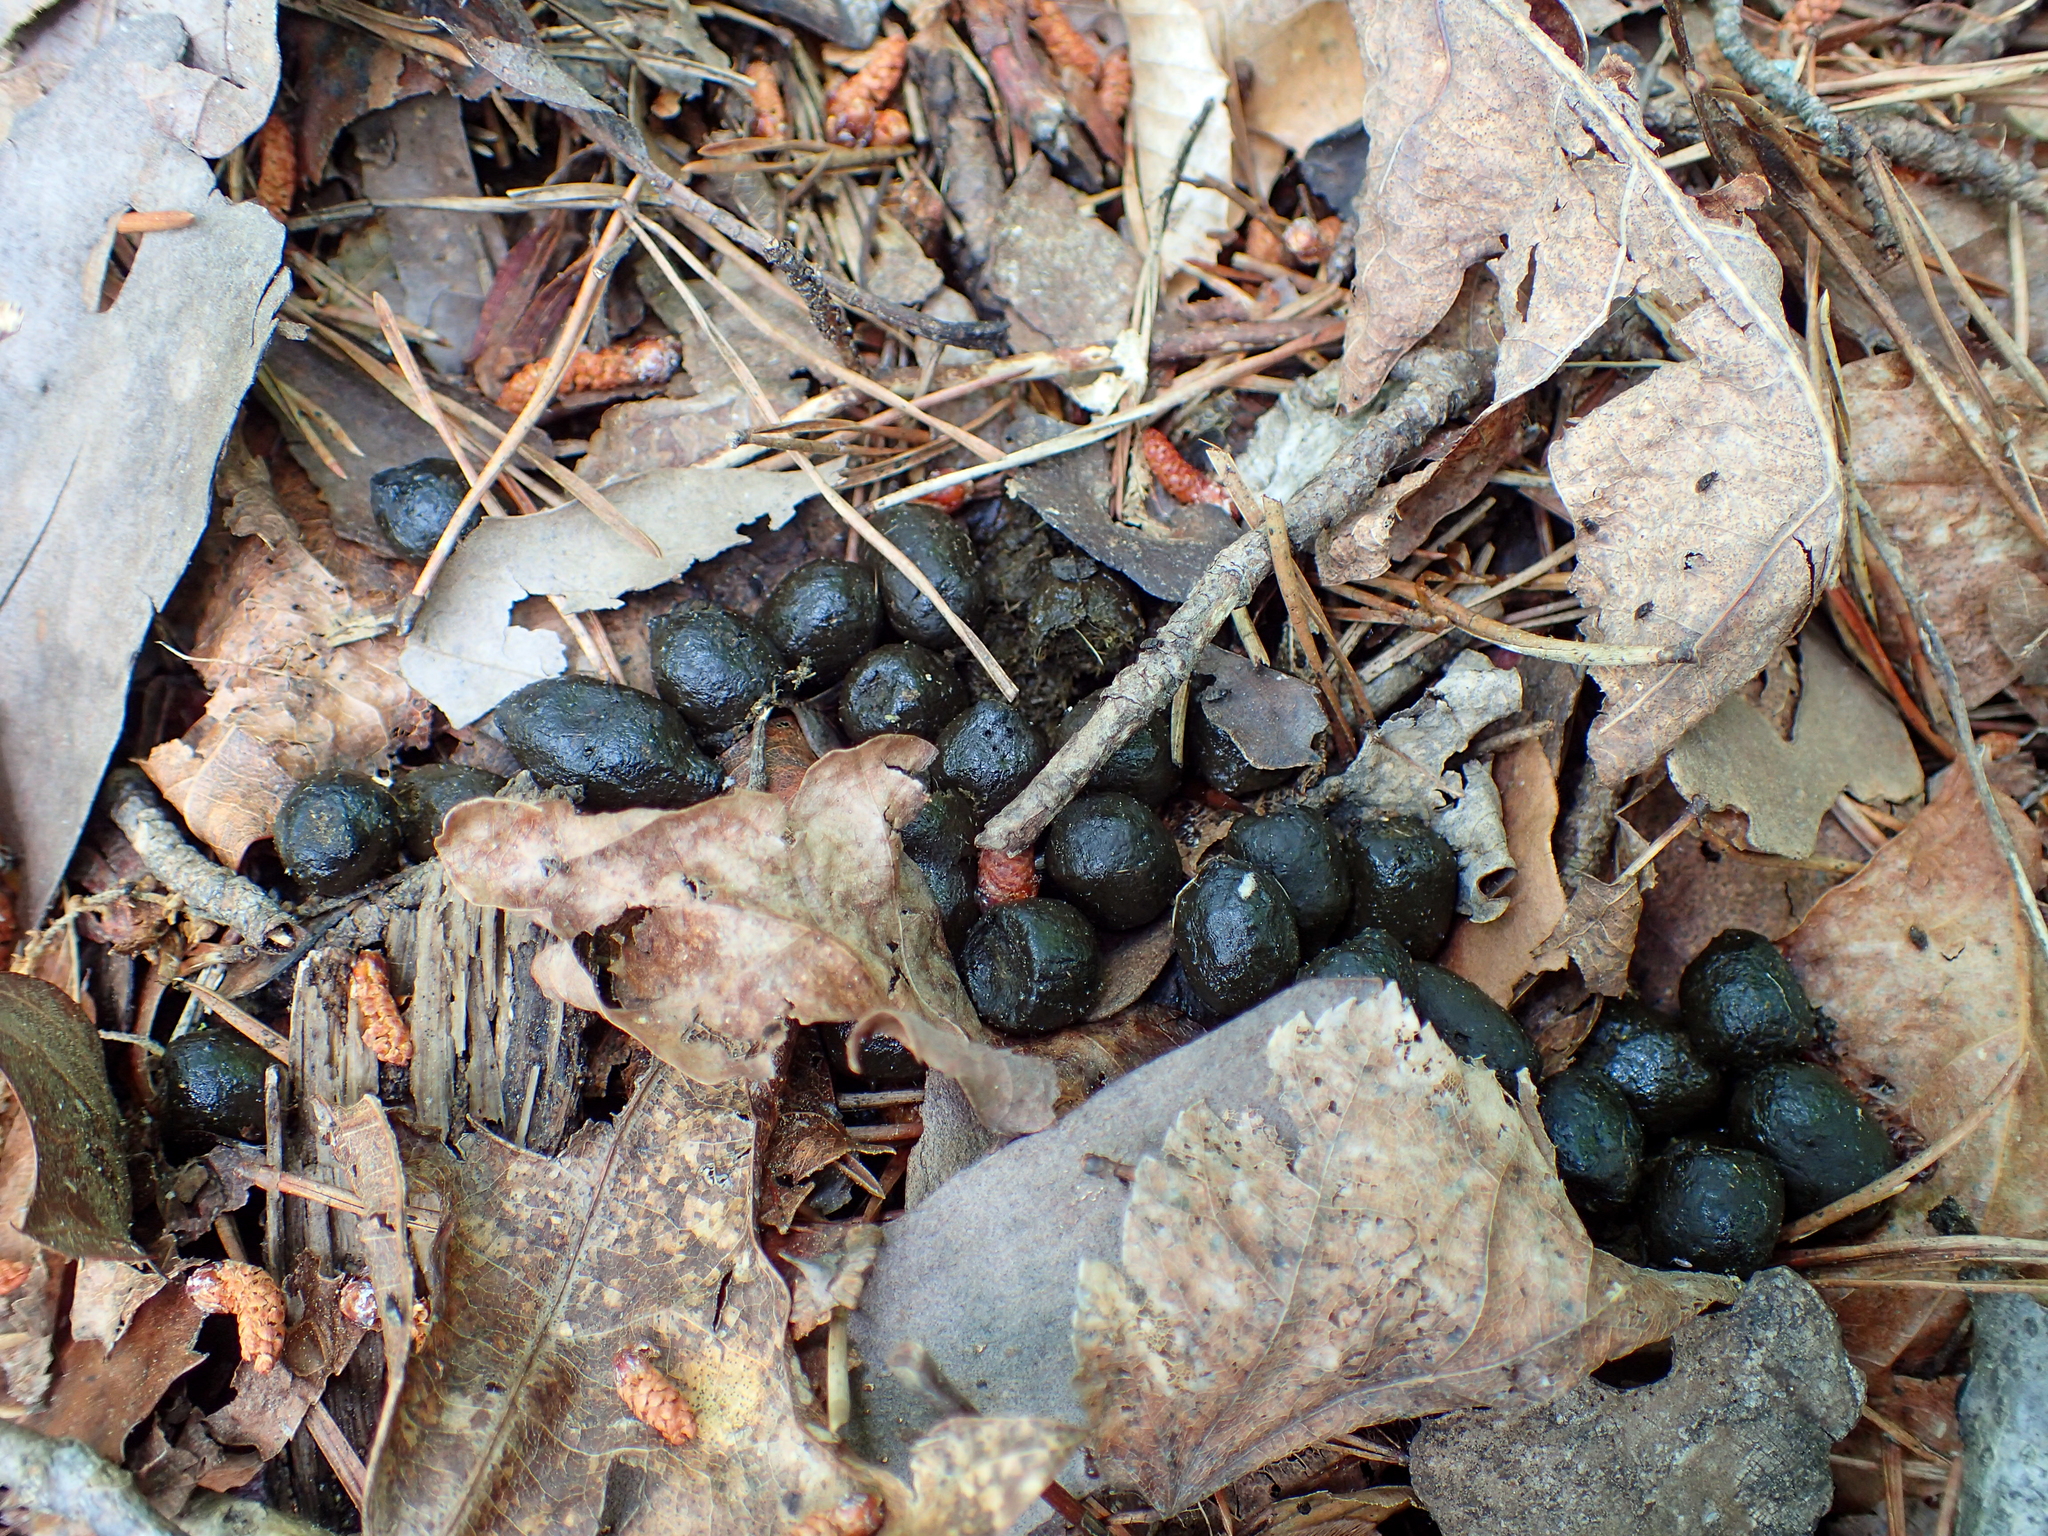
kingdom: Animalia
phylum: Chordata
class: Mammalia
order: Artiodactyla
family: Cervidae
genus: Odocoileus
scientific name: Odocoileus virginianus
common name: White-tailed deer
